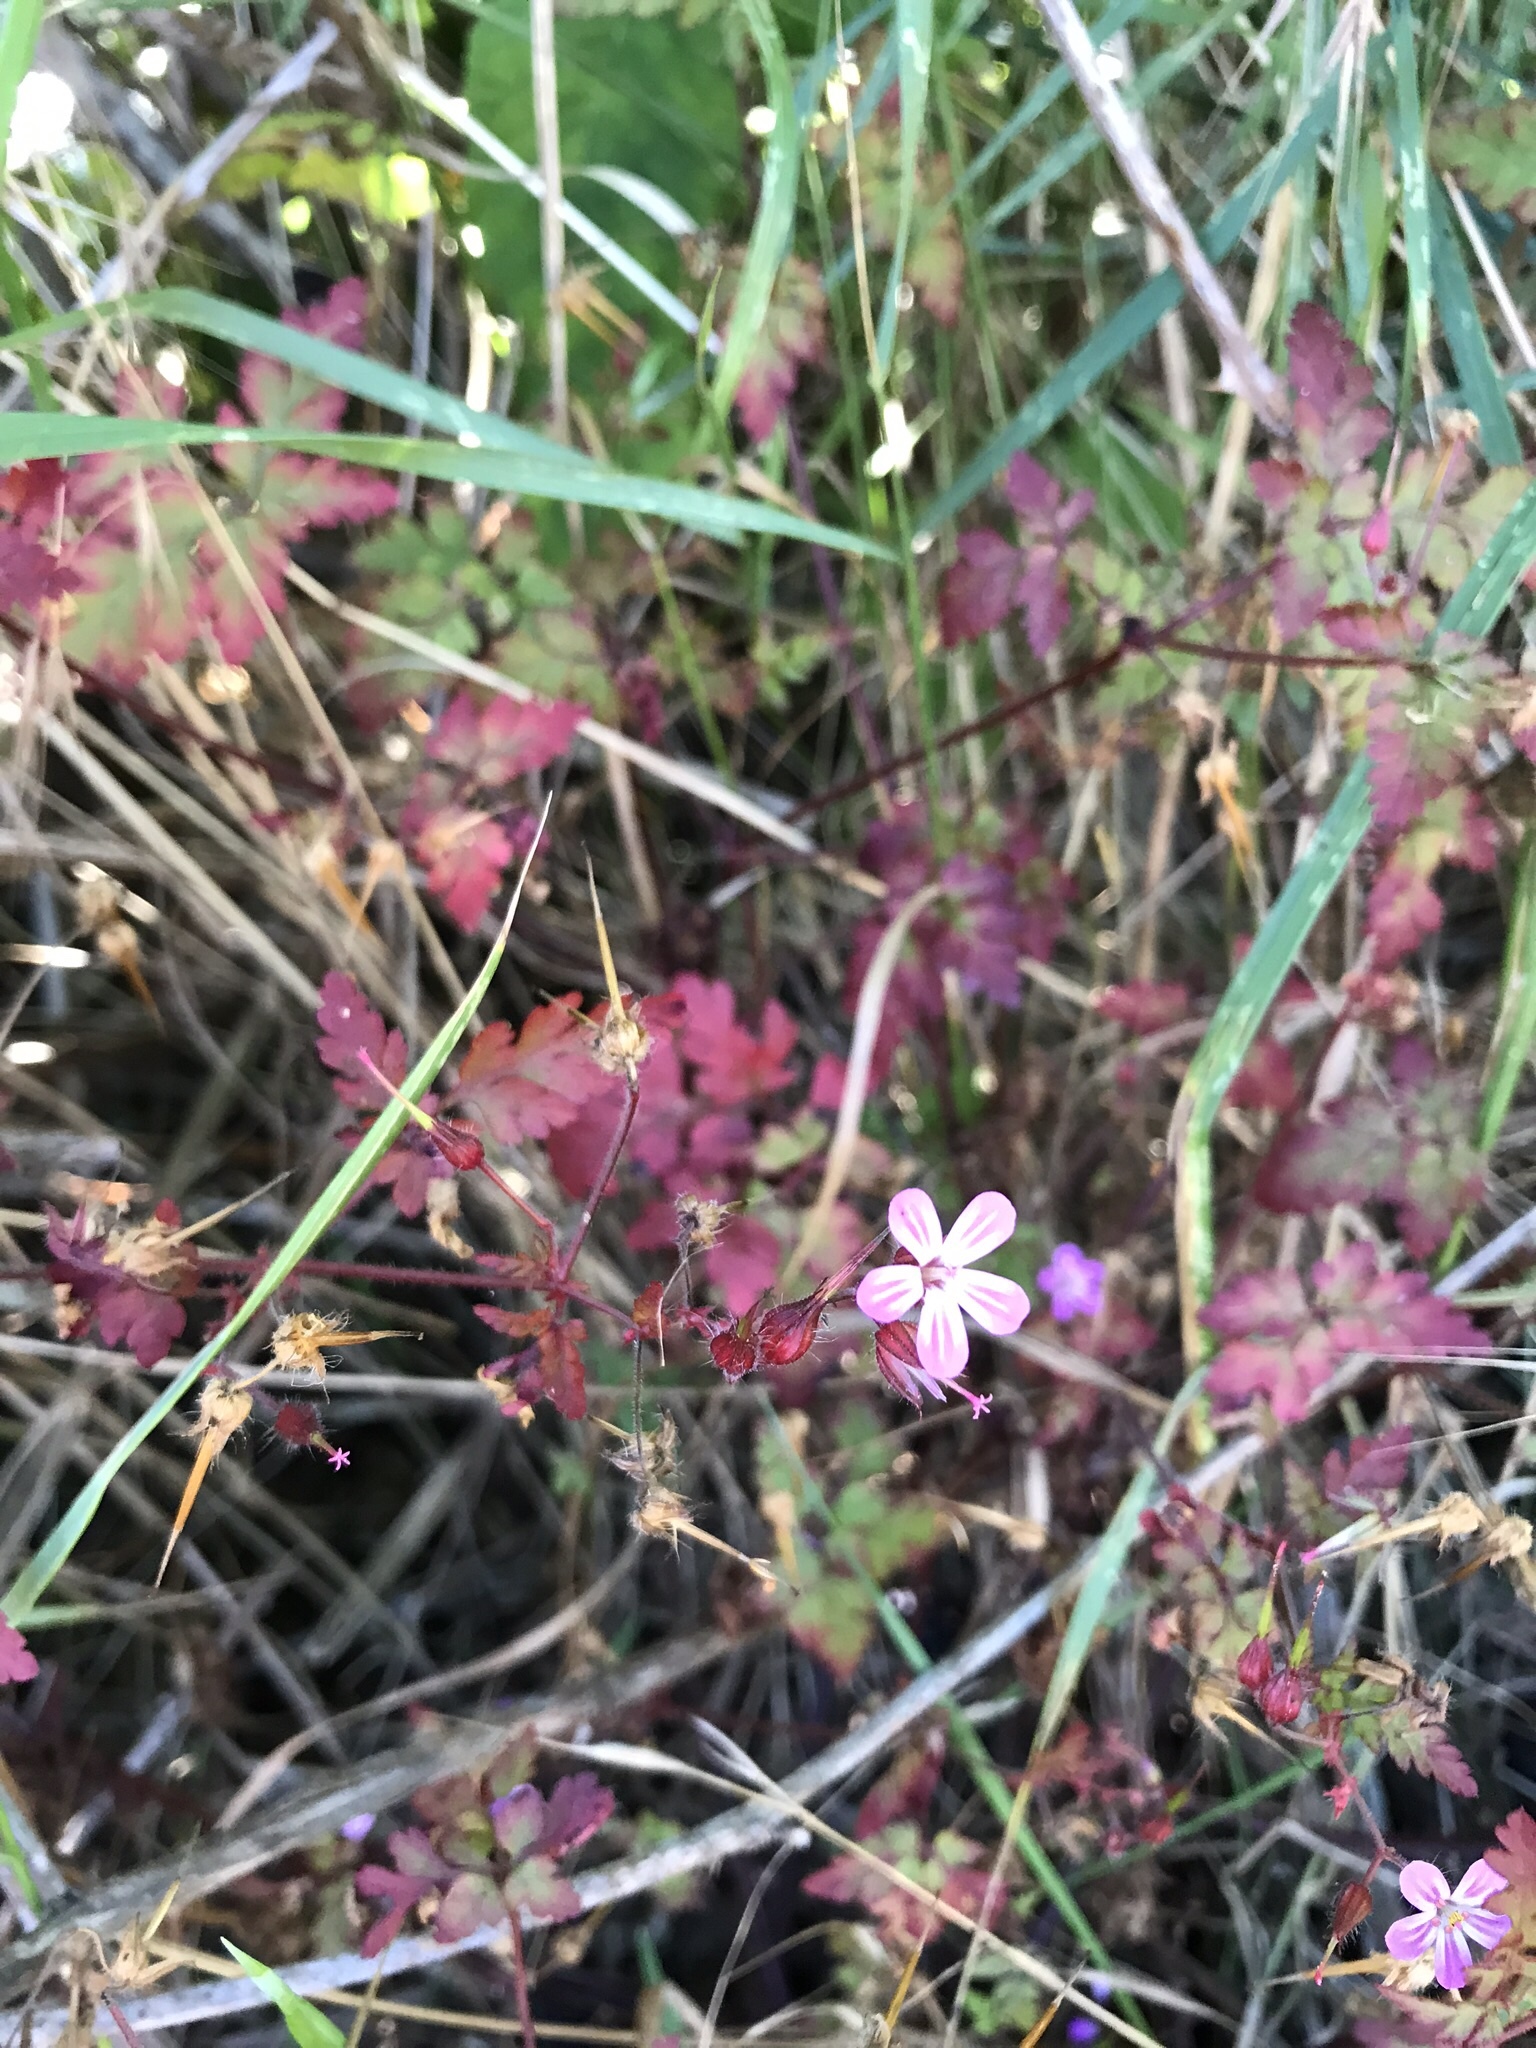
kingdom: Plantae
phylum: Tracheophyta
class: Magnoliopsida
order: Geraniales
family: Geraniaceae
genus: Geranium
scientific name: Geranium robertianum
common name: Herb-robert
